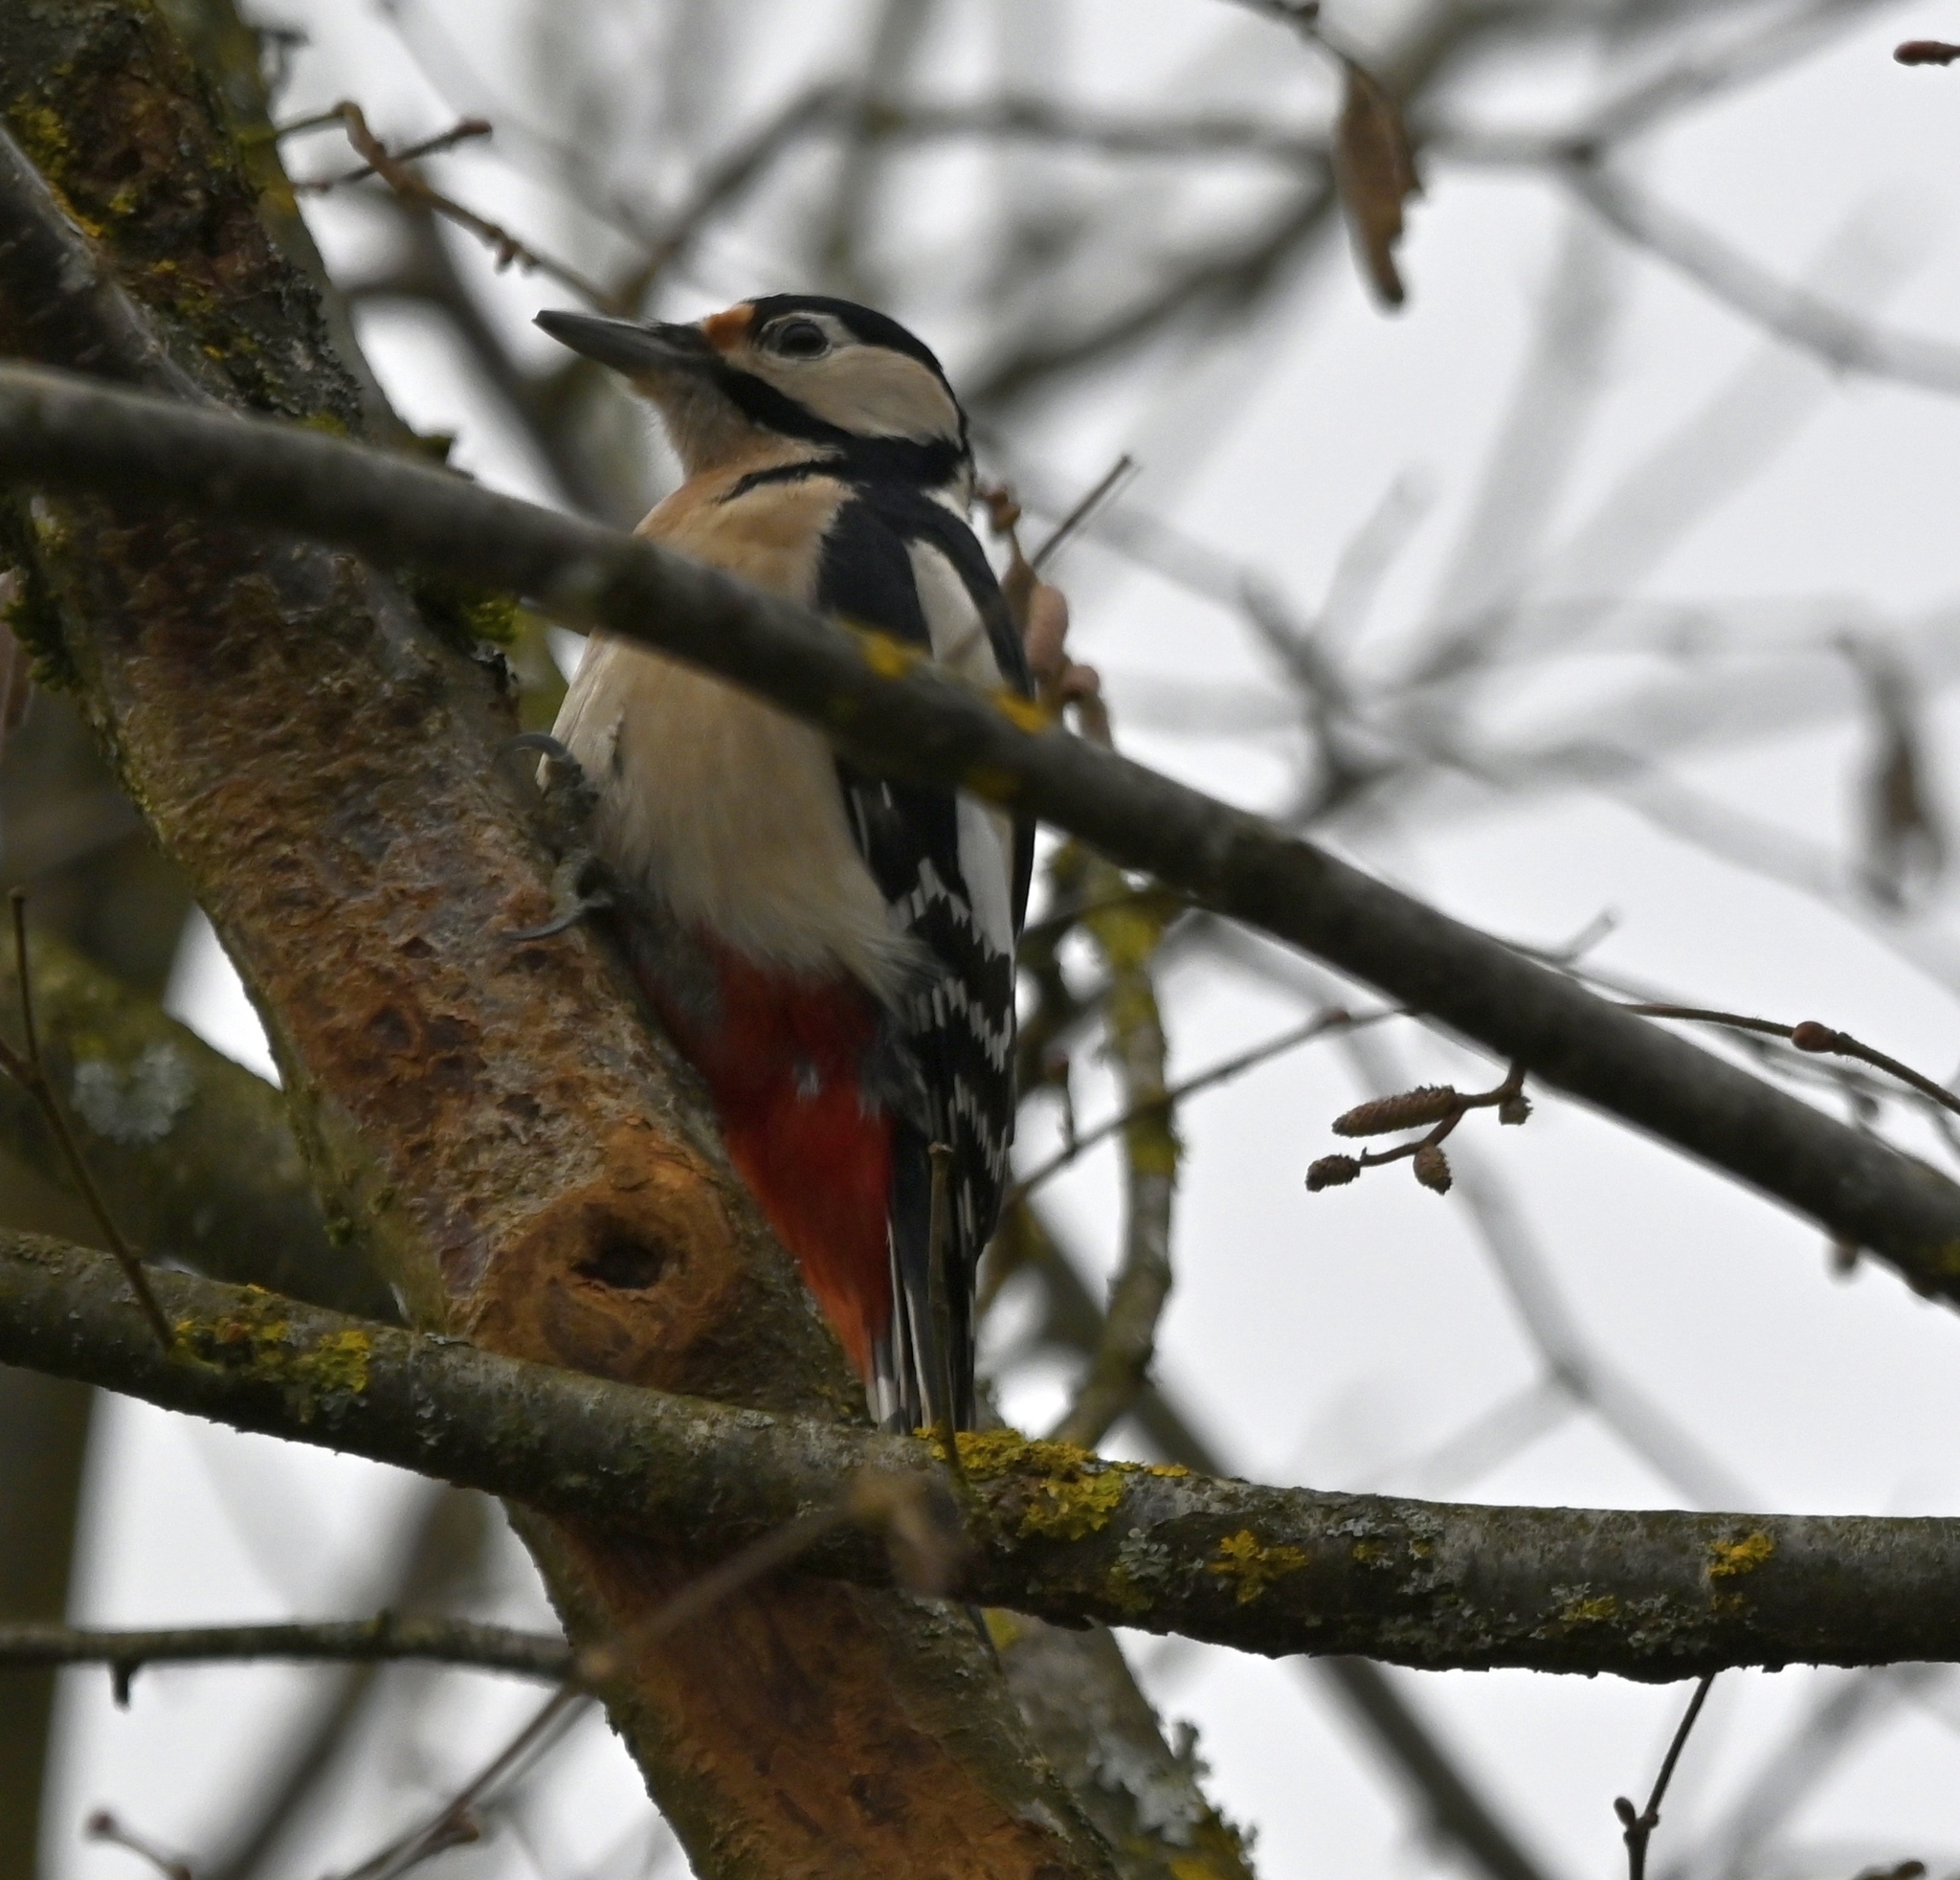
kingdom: Animalia
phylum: Chordata
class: Aves
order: Piciformes
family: Picidae
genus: Dendrocopos
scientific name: Dendrocopos major
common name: Great spotted woodpecker
